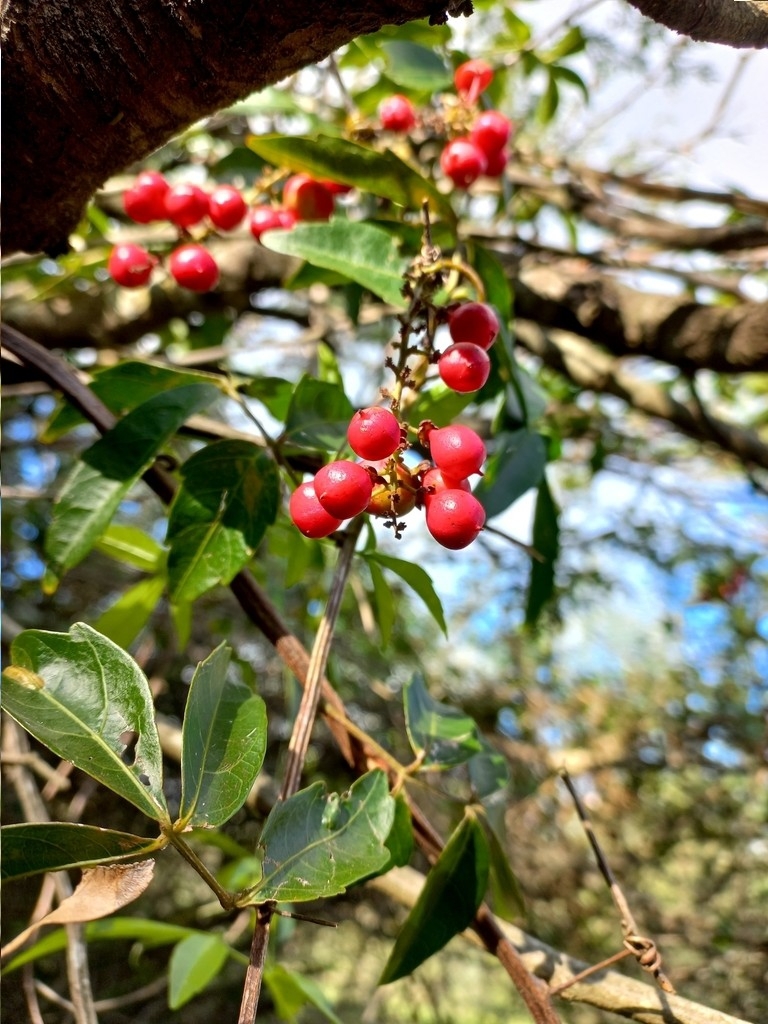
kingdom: Plantae
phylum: Tracheophyta
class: Magnoliopsida
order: Sapindales
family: Sapindaceae
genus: Paullinia
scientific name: Paullinia elegans
